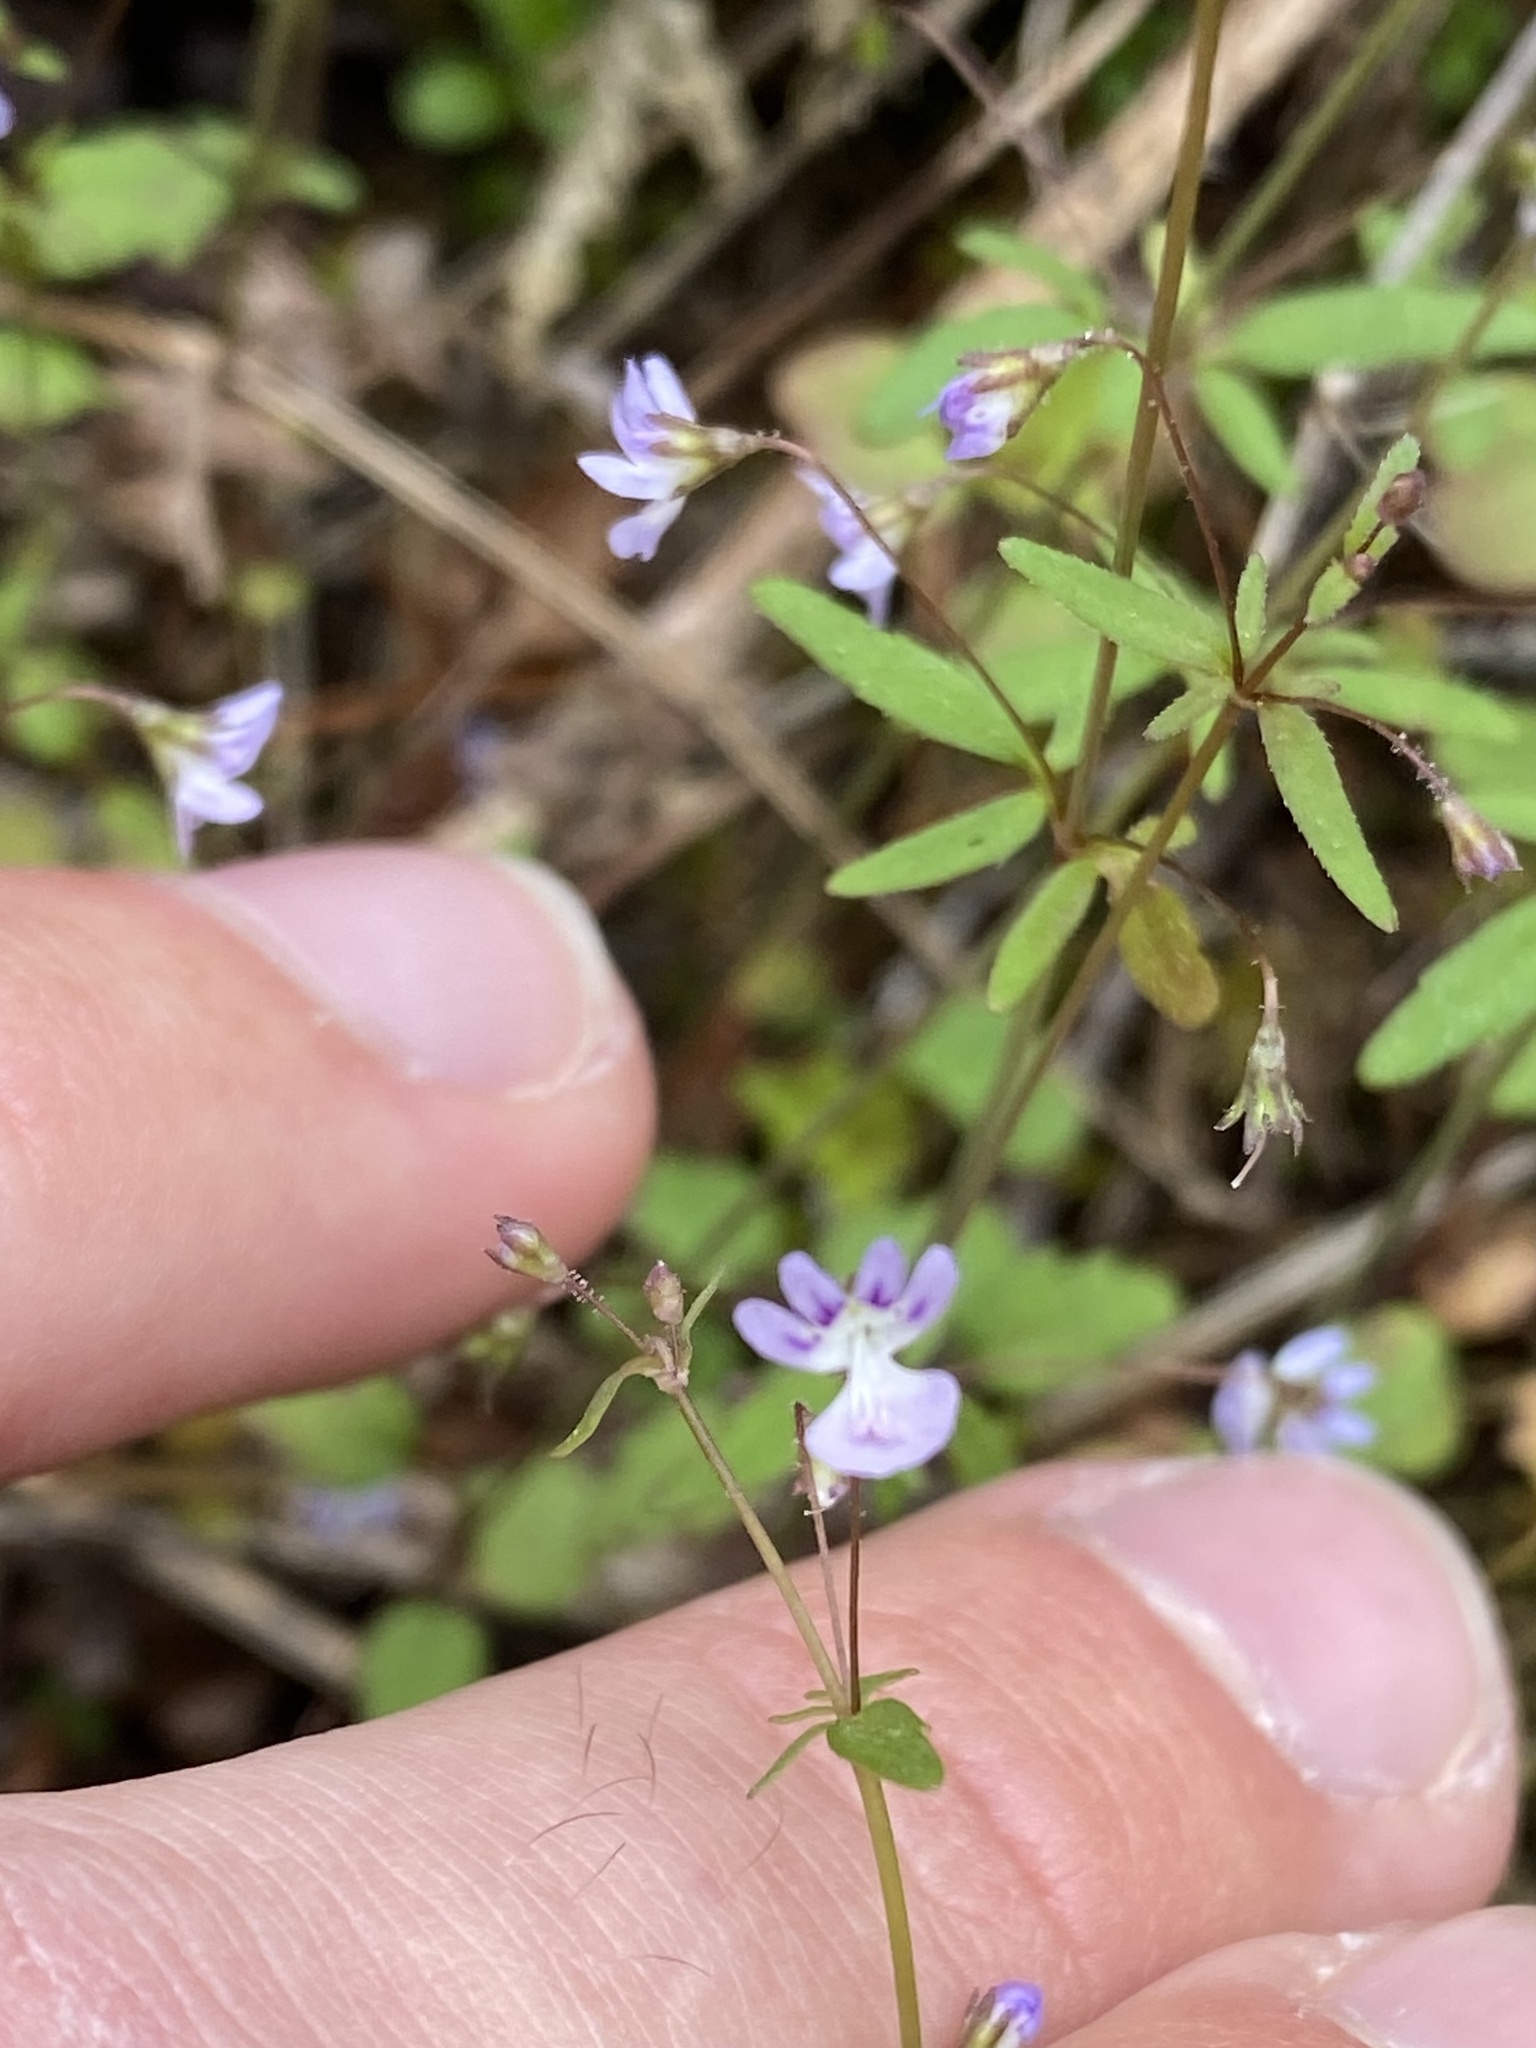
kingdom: Plantae
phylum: Tracheophyta
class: Magnoliopsida
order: Lamiales
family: Plantaginaceae
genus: Tonella
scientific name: Tonella tenella
